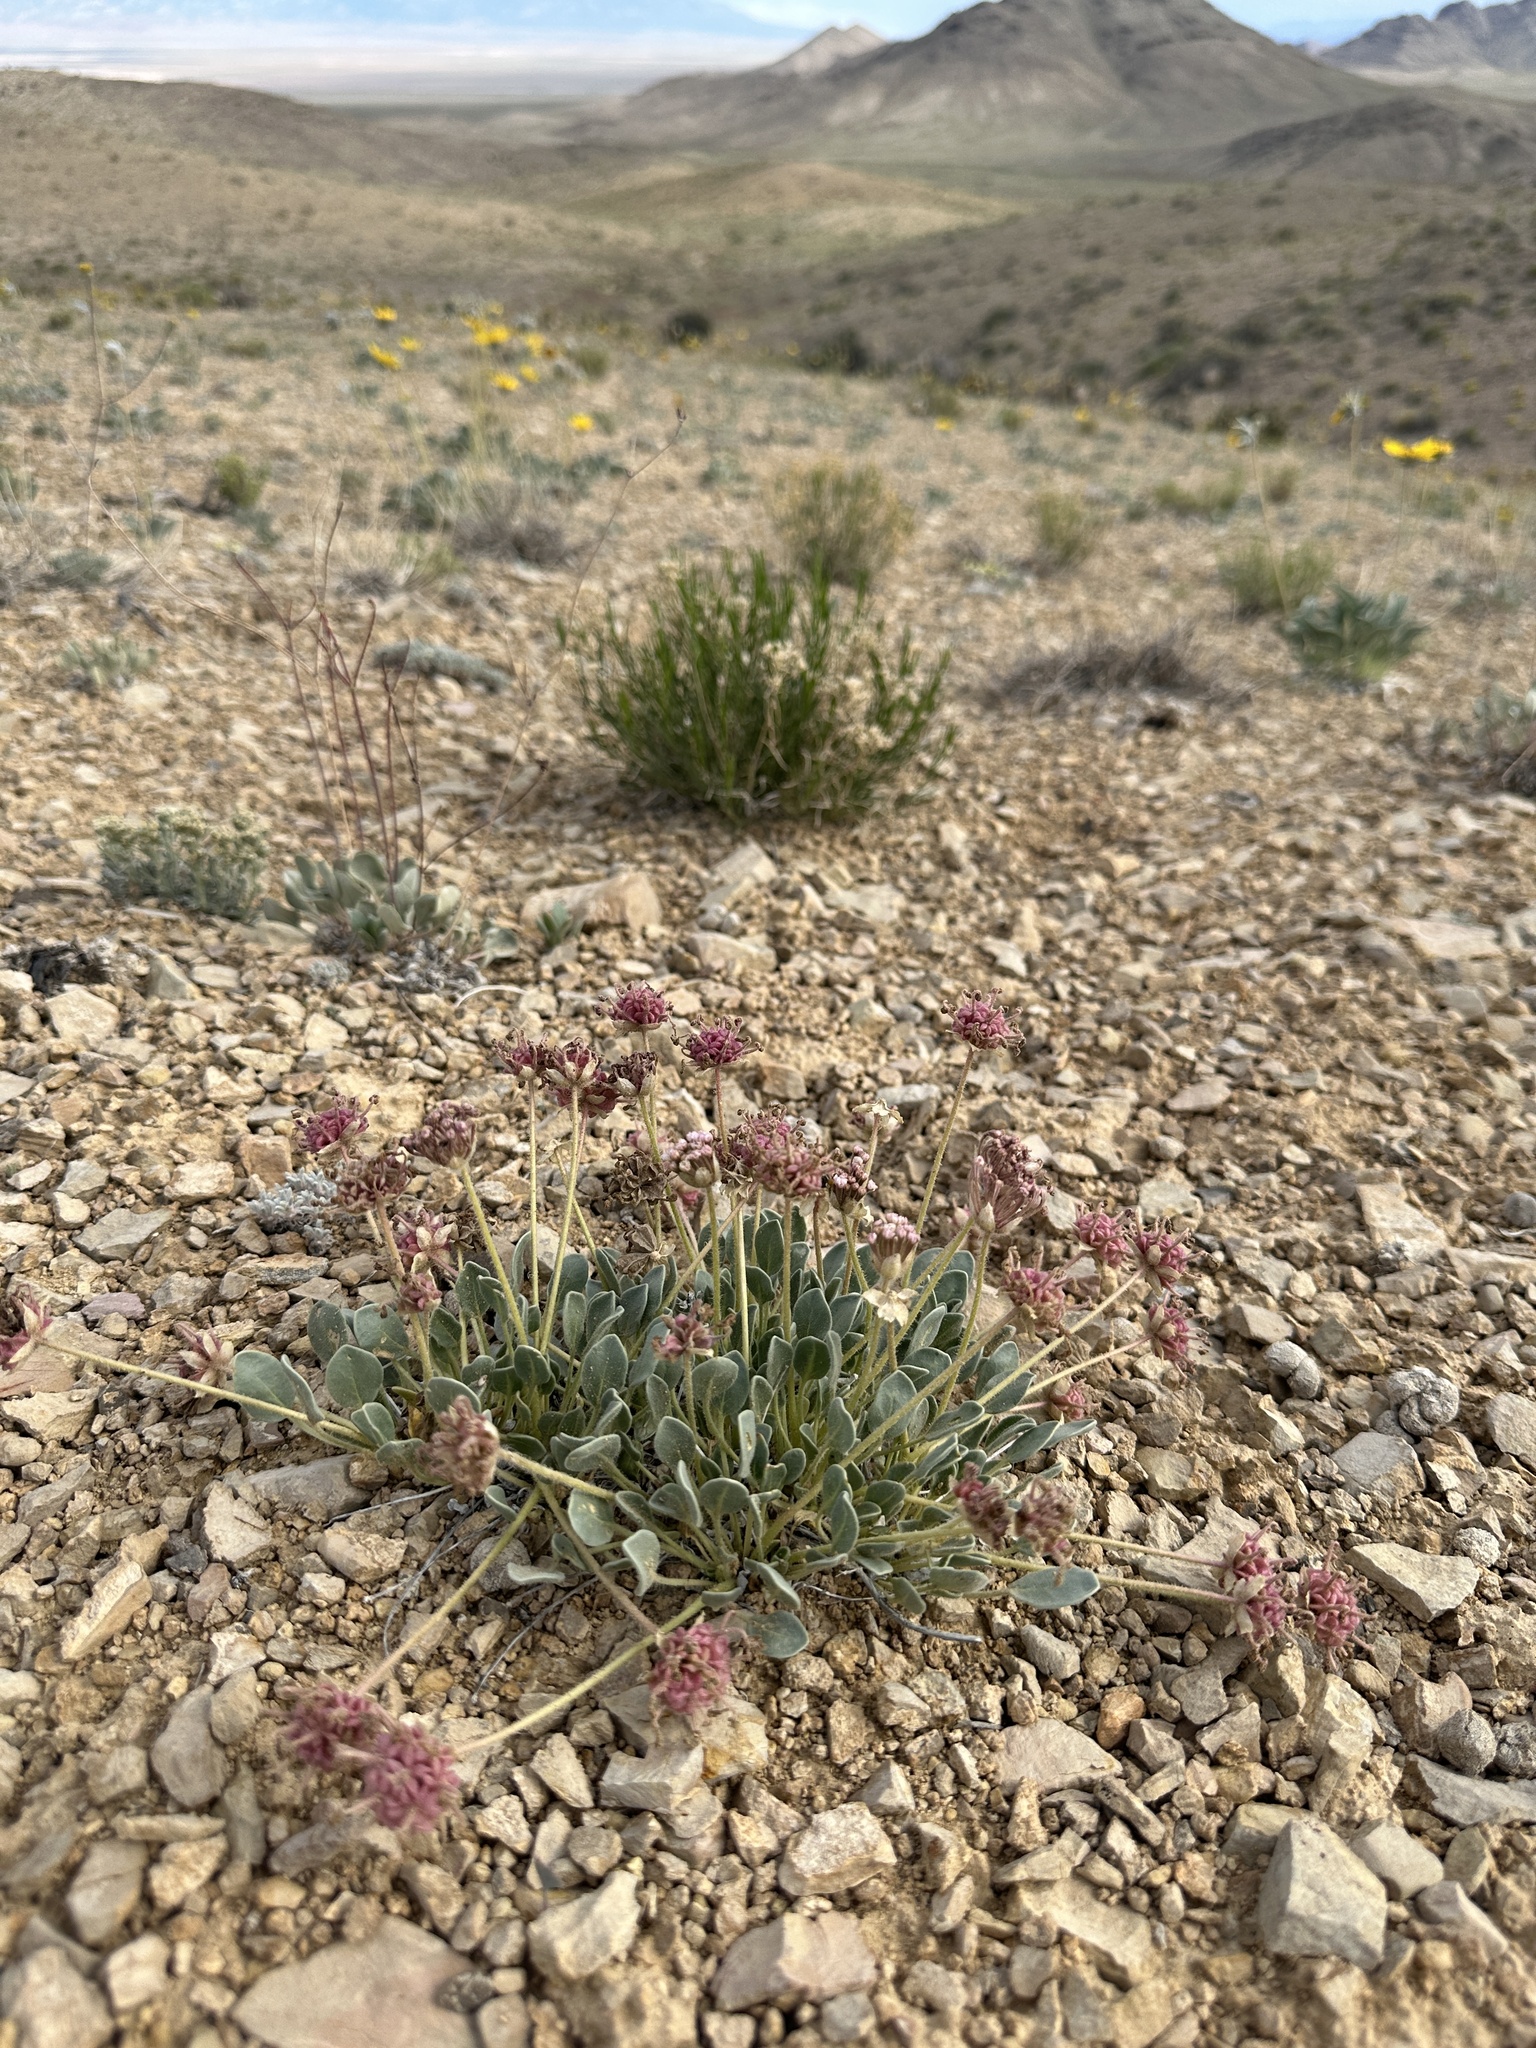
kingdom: Plantae
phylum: Tracheophyta
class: Magnoliopsida
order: Caryophyllales
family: Nyctaginaceae
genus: Abronia
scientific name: Abronia nana
